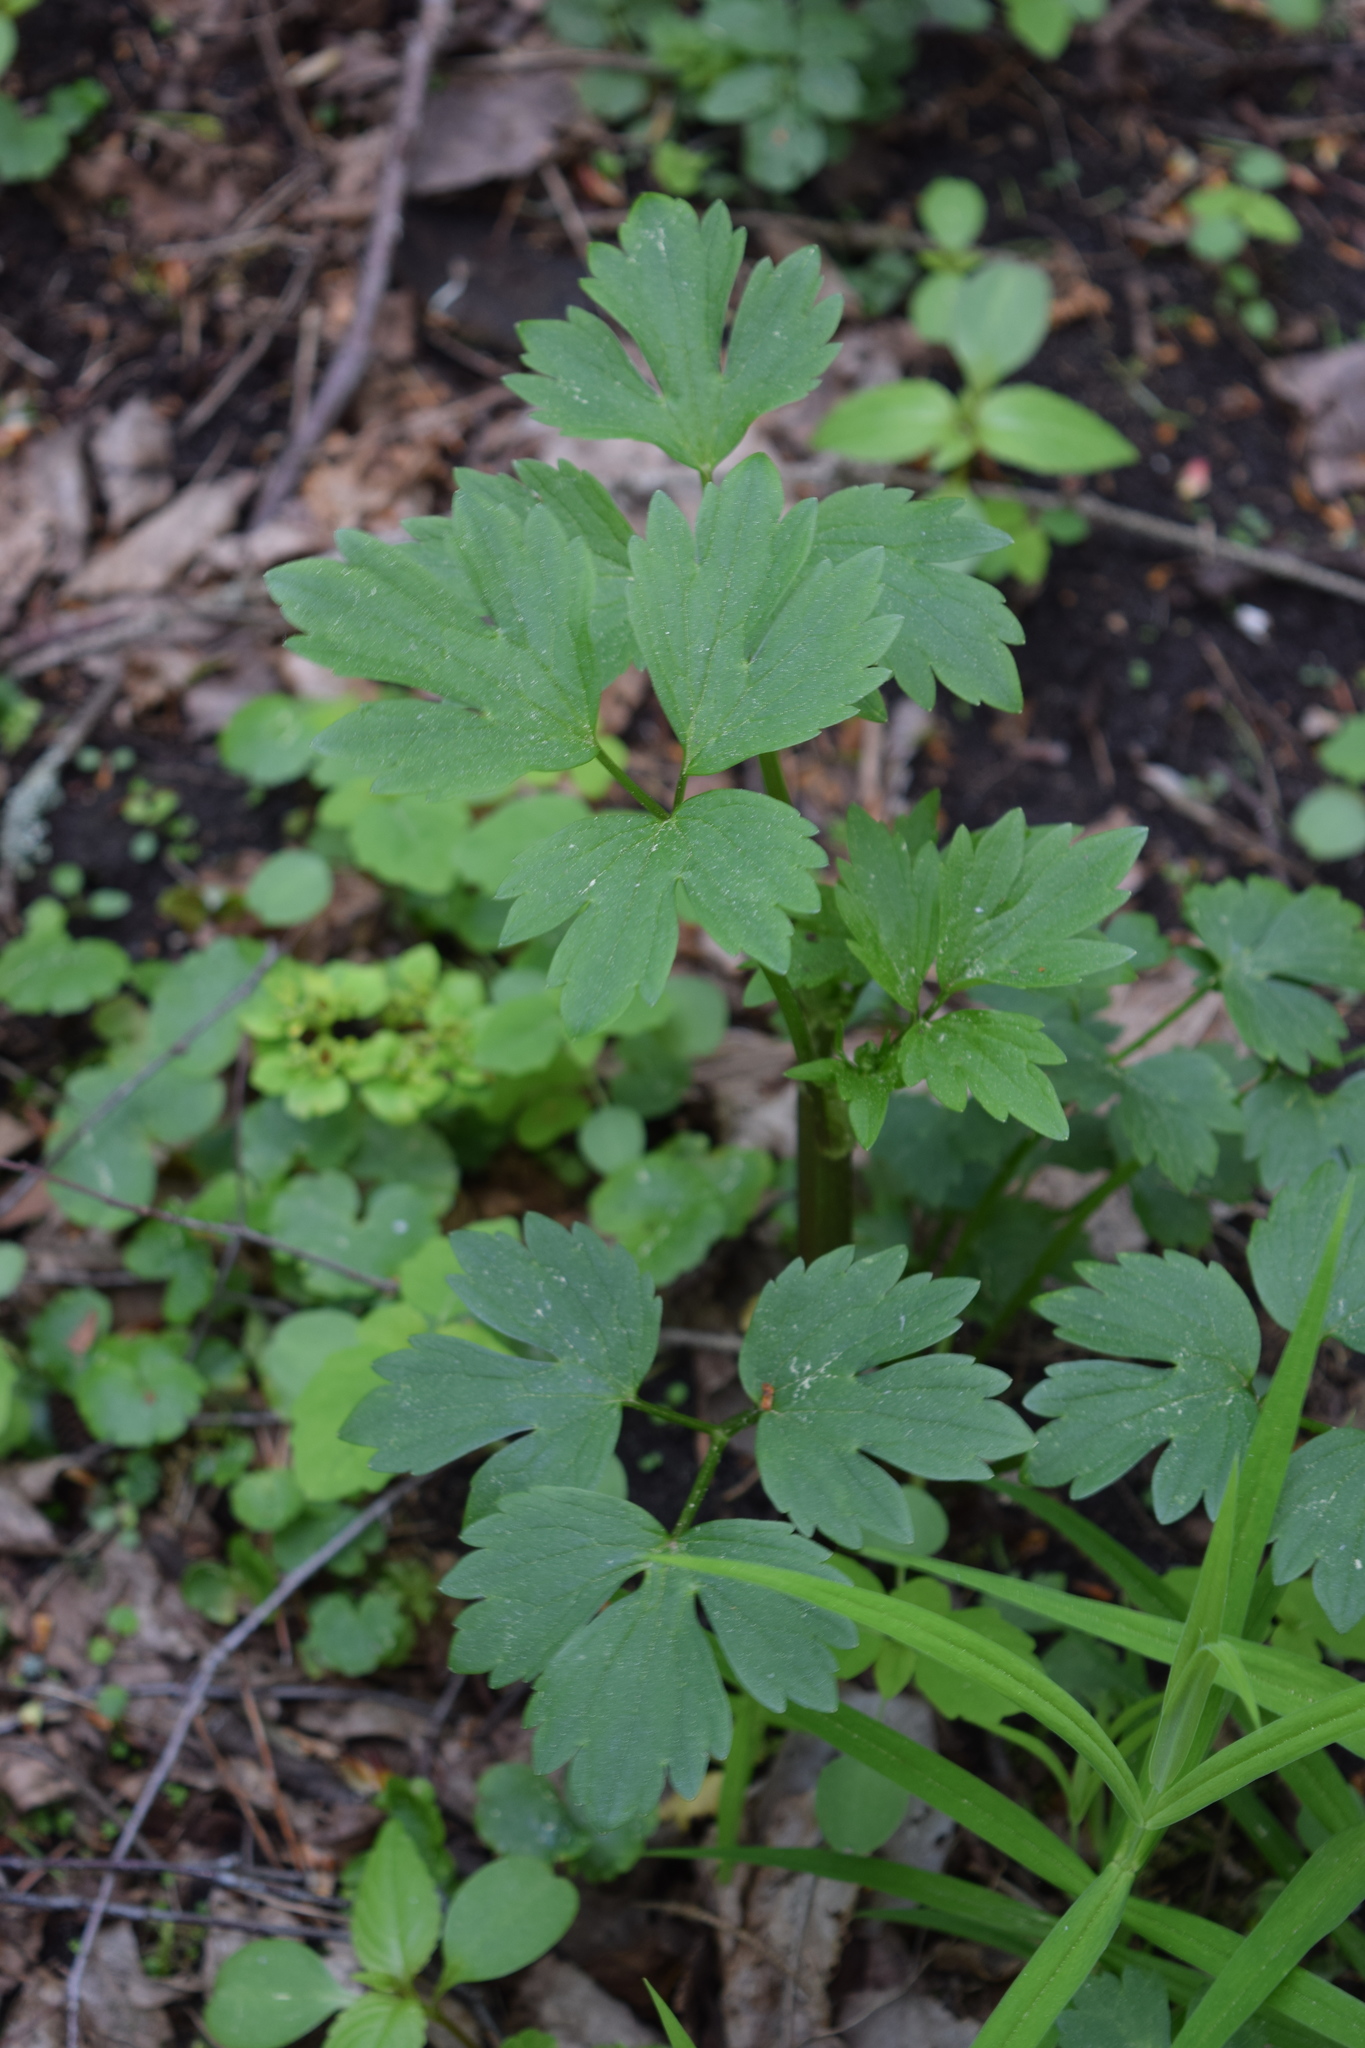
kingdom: Plantae
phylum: Tracheophyta
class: Magnoliopsida
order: Ranunculales
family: Ranunculaceae
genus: Ranunculus
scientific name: Ranunculus repens
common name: Creeping buttercup
